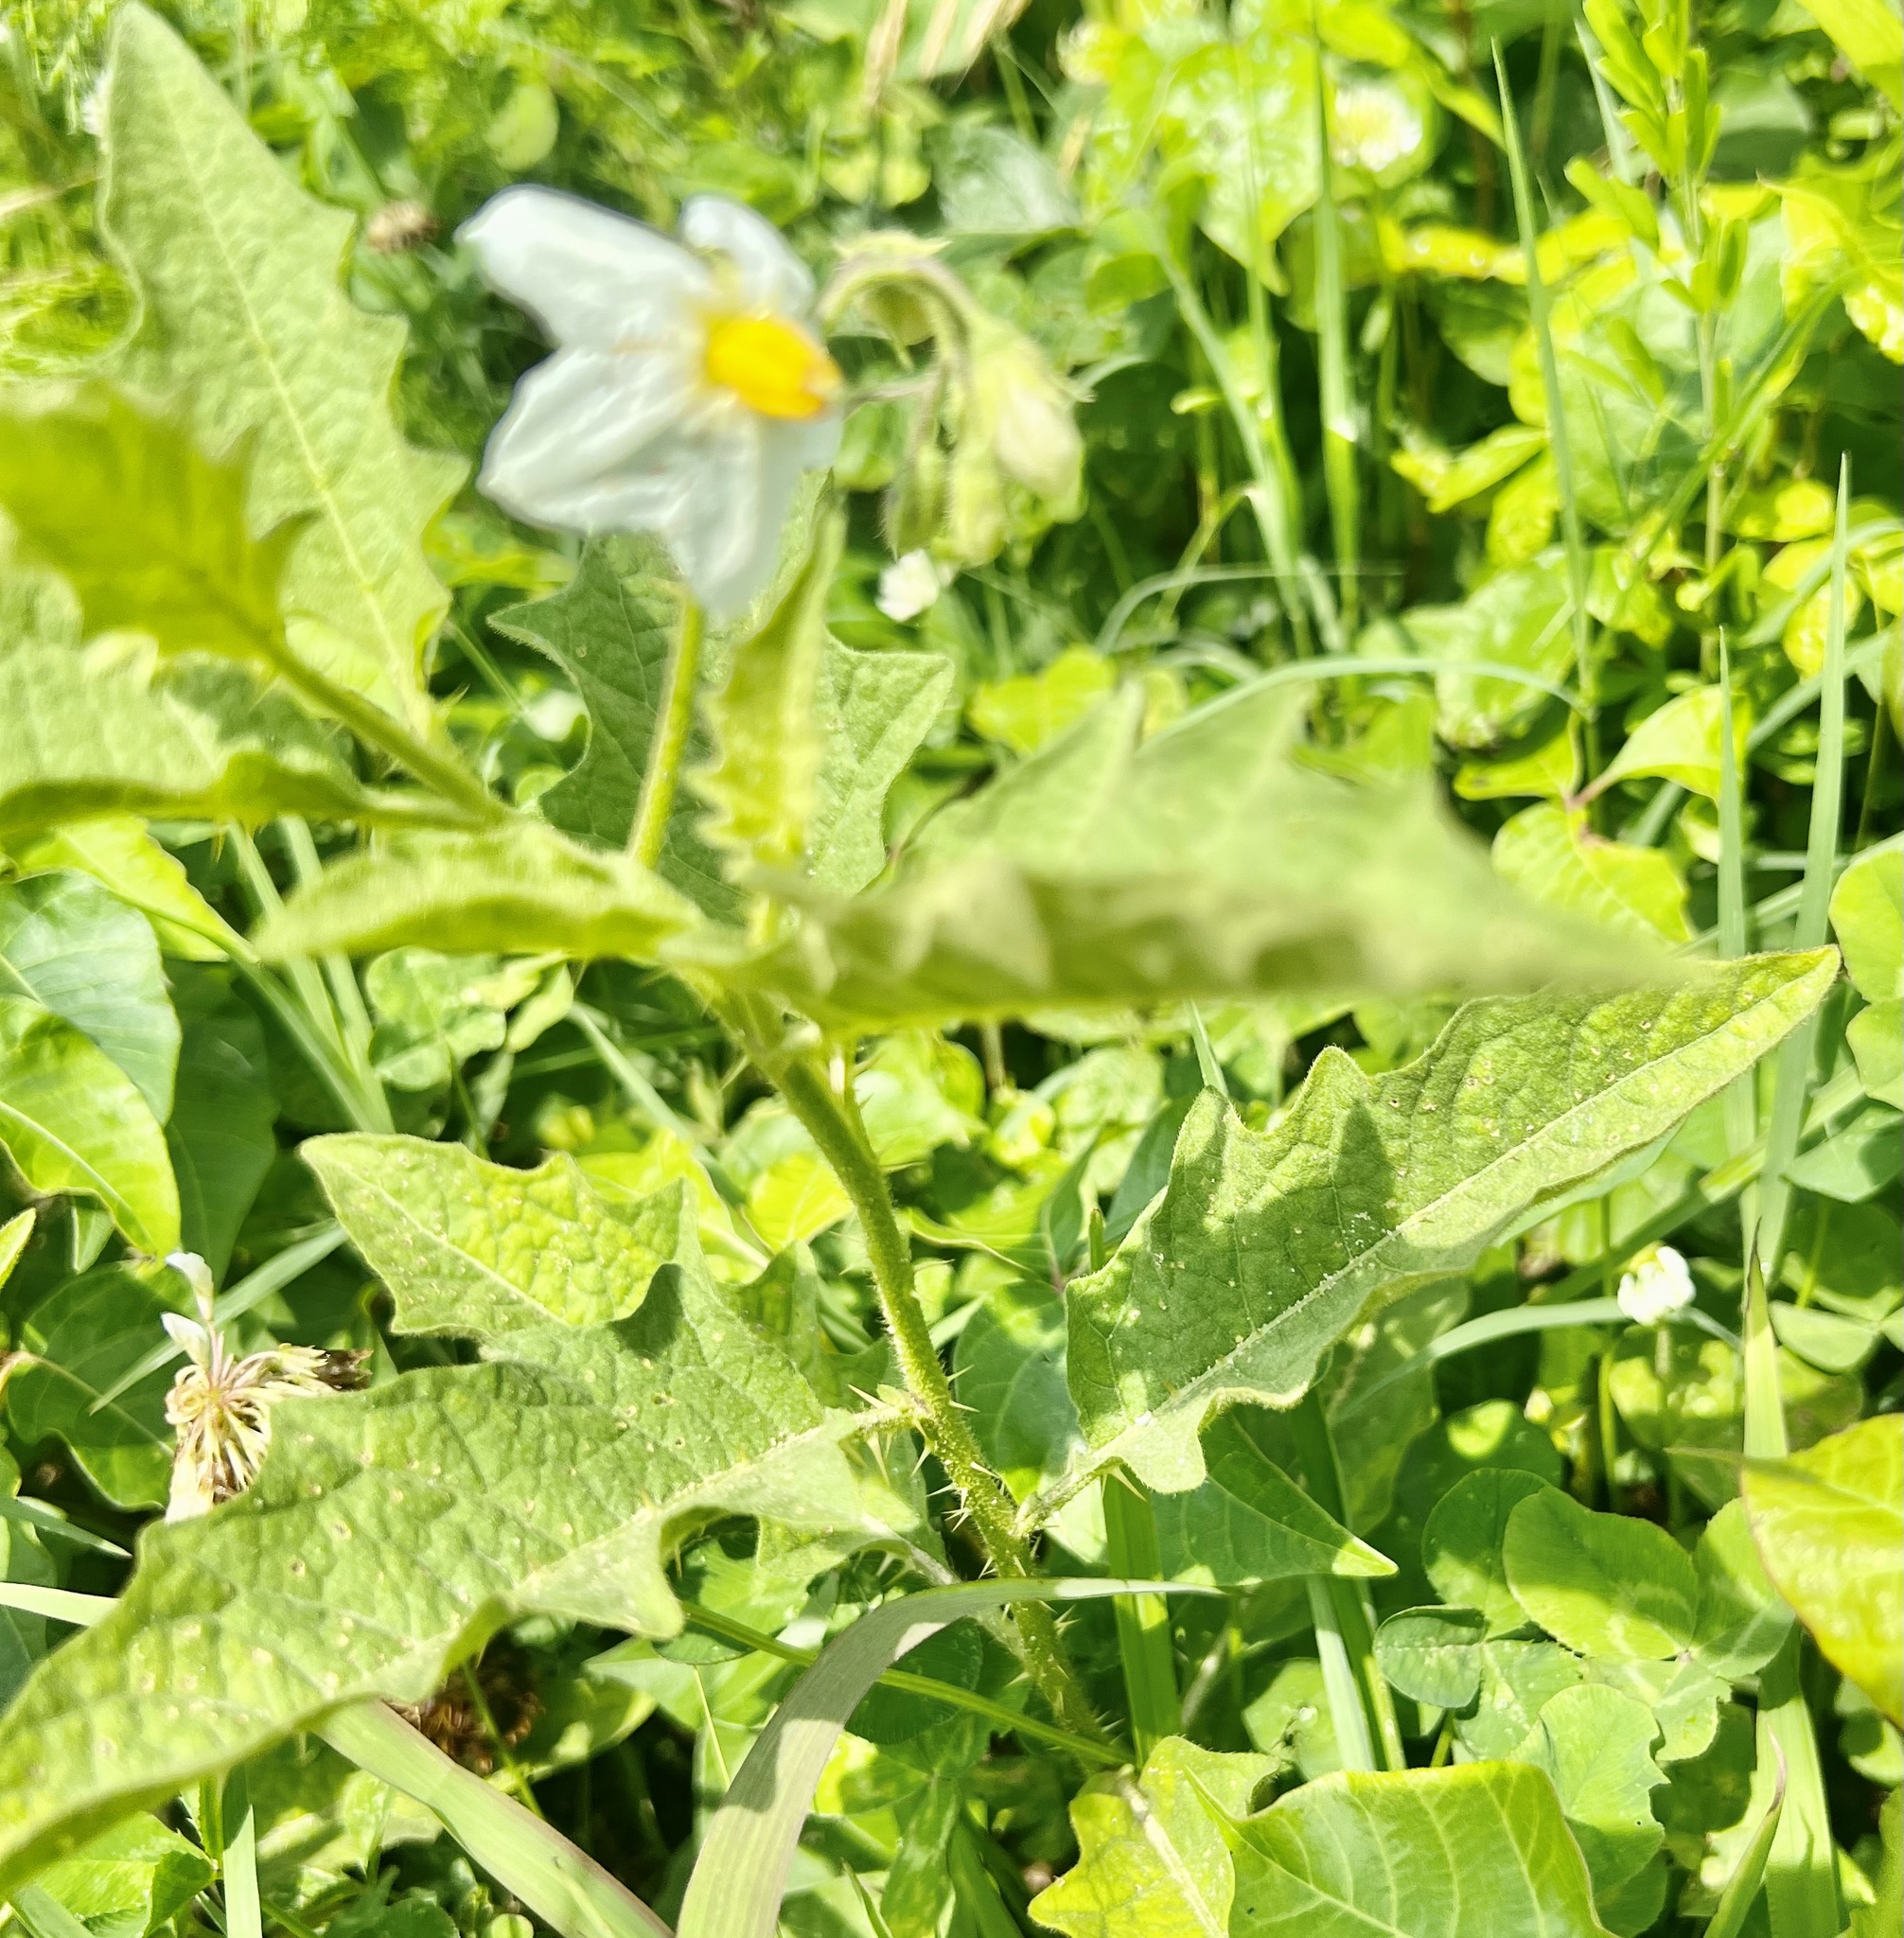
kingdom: Plantae
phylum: Tracheophyta
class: Magnoliopsida
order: Solanales
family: Solanaceae
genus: Solanum
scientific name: Solanum carolinense
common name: Horse-nettle
